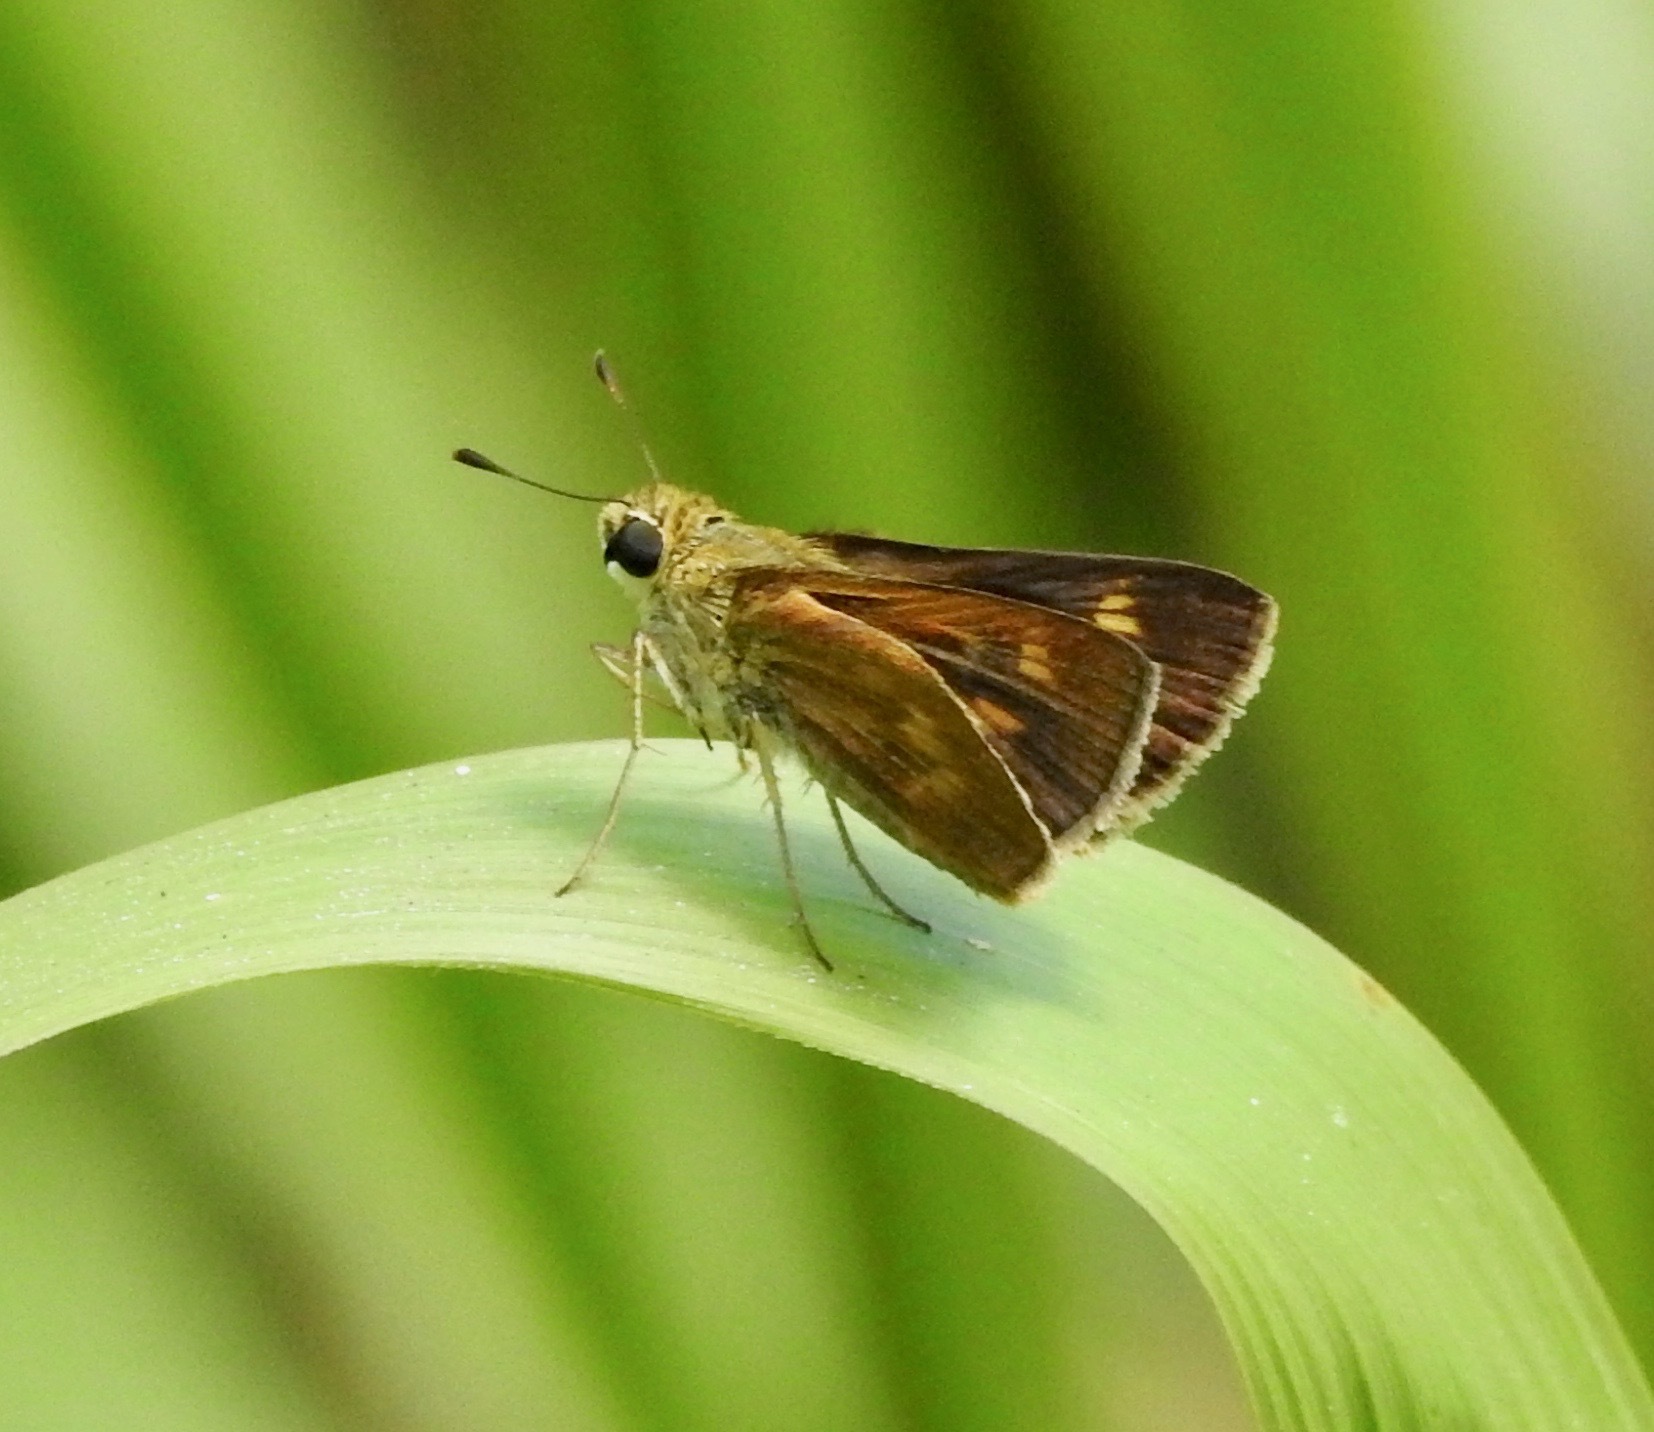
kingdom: Animalia
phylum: Arthropoda
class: Insecta
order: Lepidoptera
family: Hesperiidae
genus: Polites
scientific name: Polites otho
